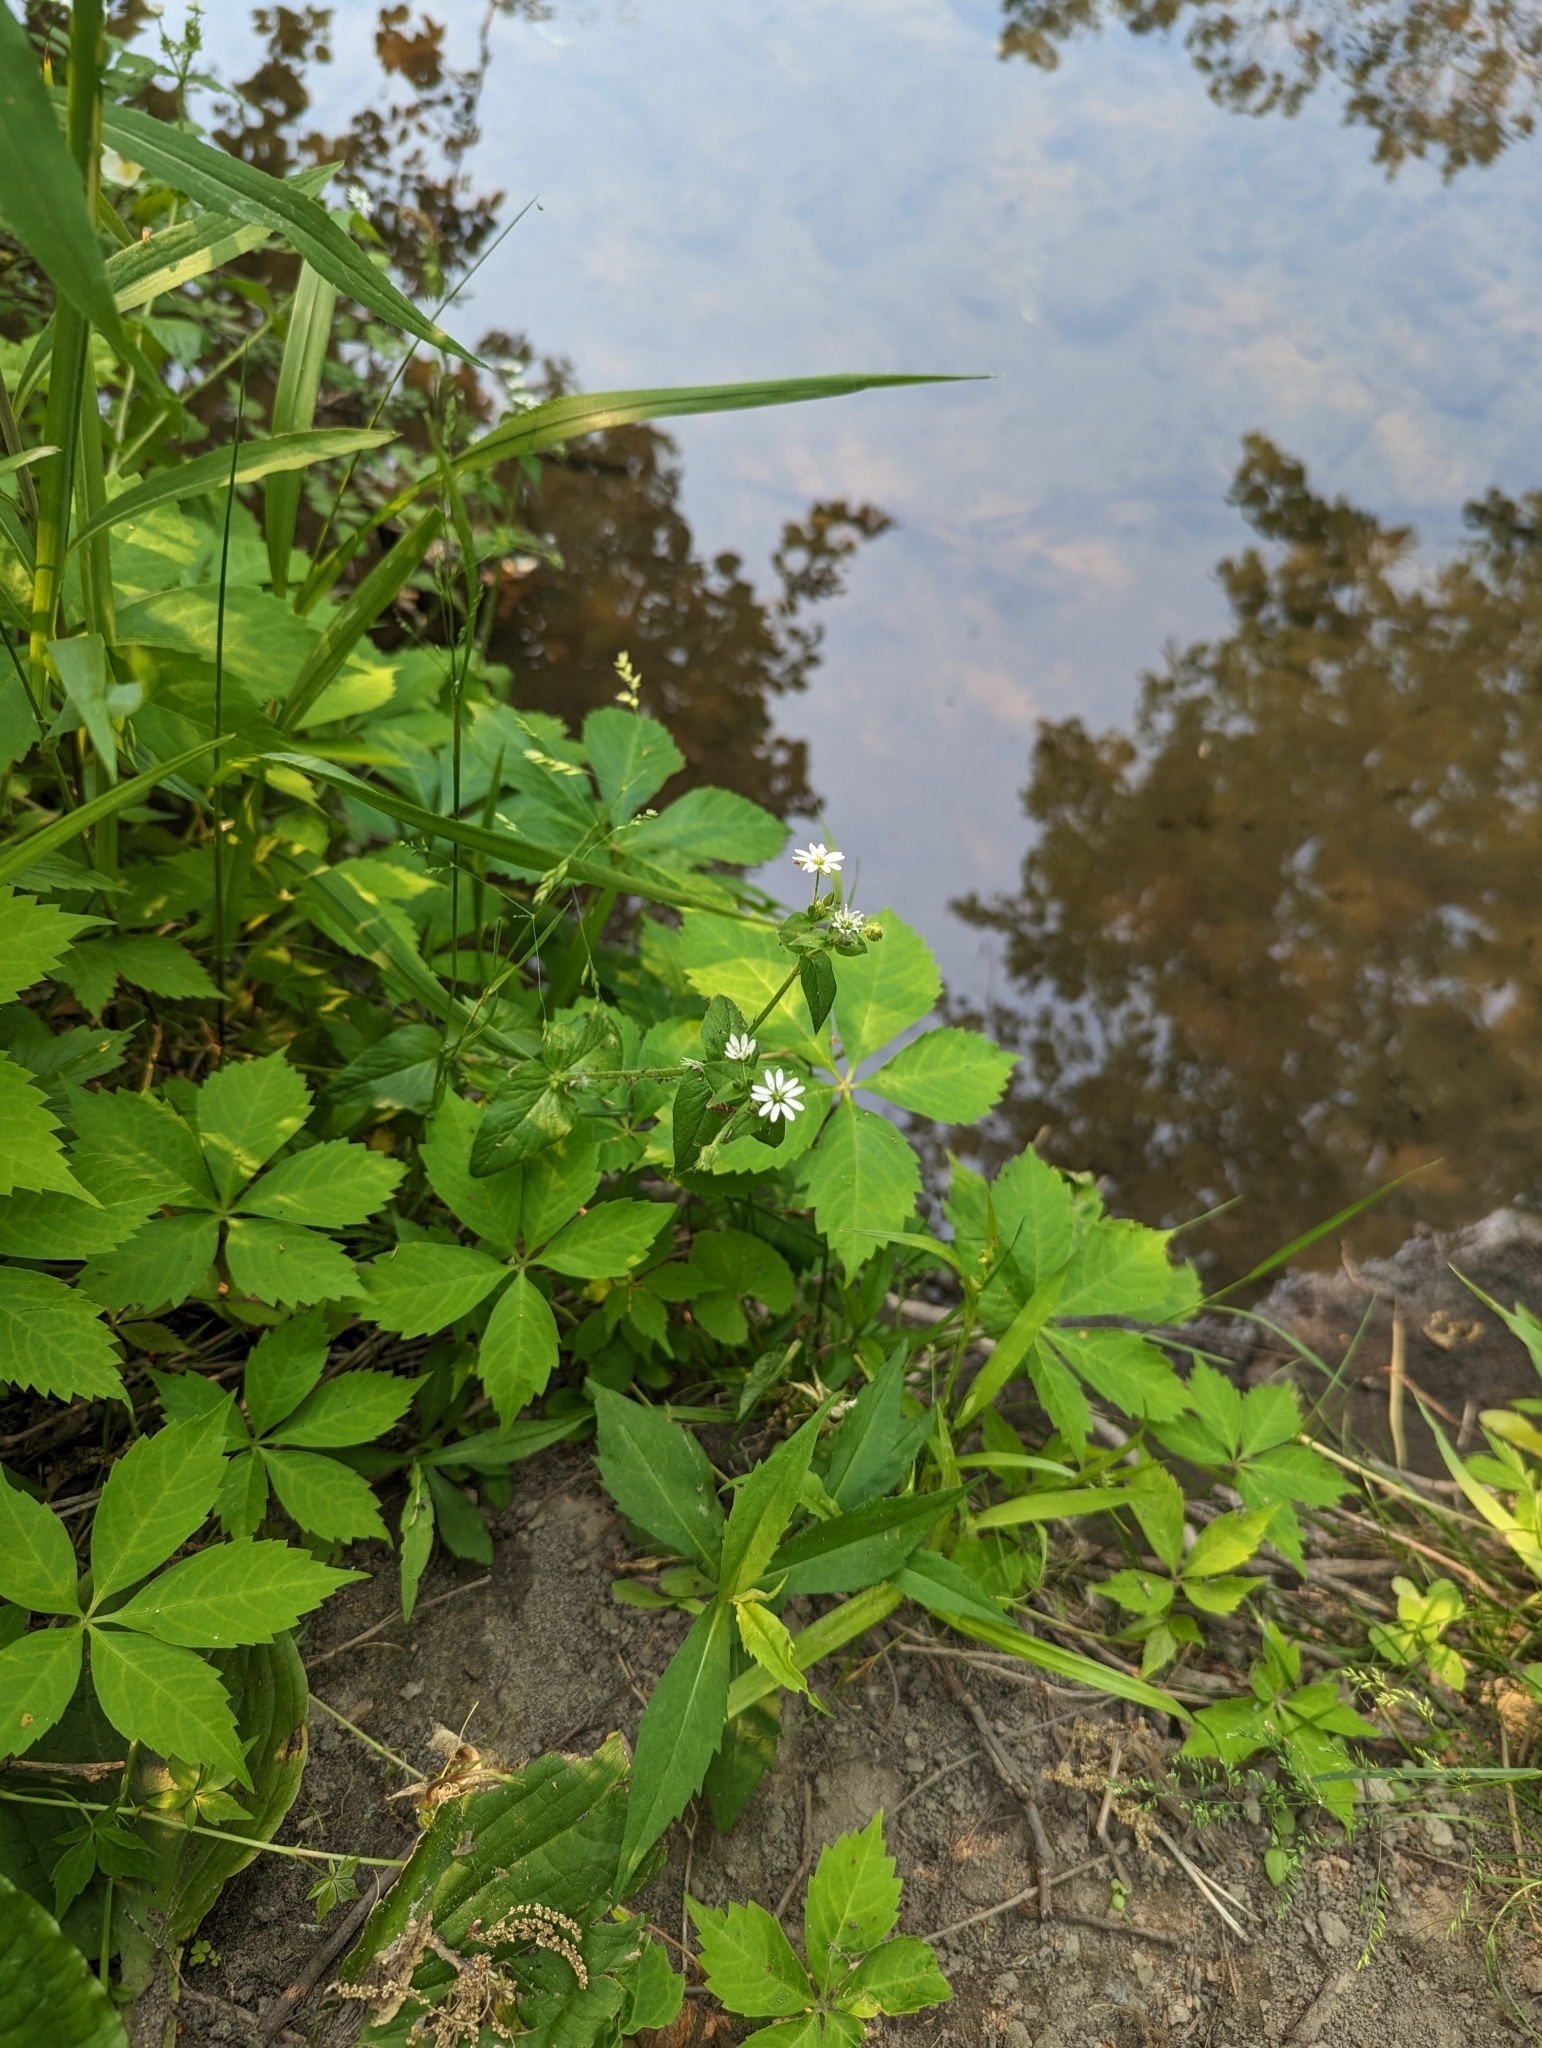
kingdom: Plantae
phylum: Tracheophyta
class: Magnoliopsida
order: Caryophyllales
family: Caryophyllaceae
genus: Stellaria
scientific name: Stellaria aquatica
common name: Water chickweed
